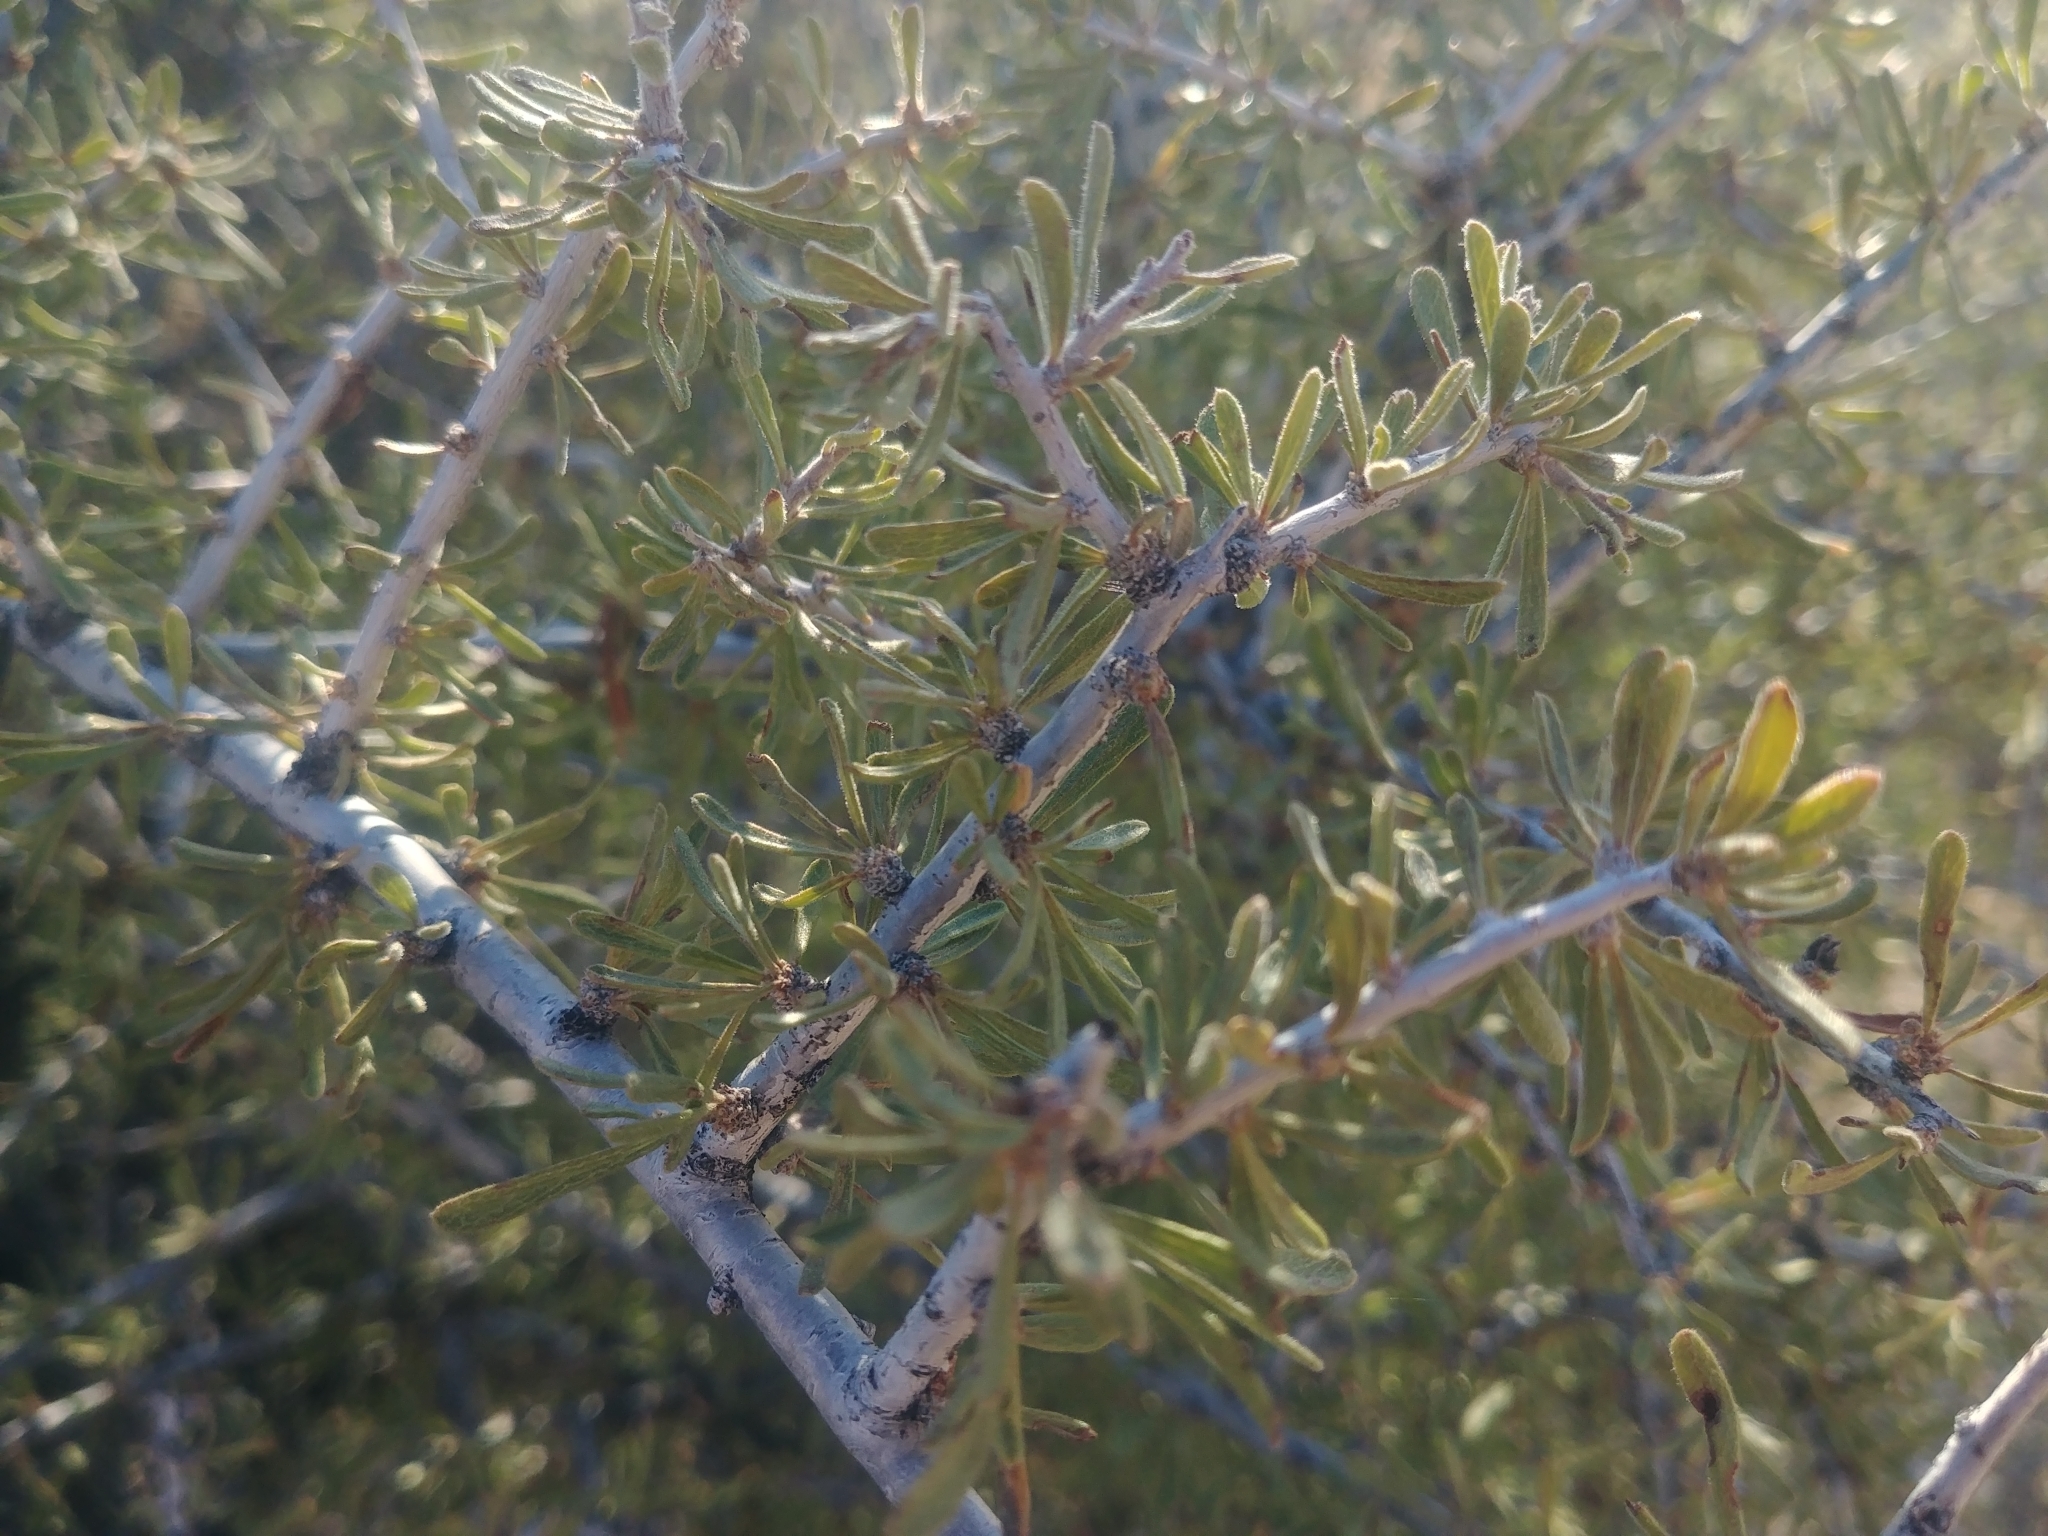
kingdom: Plantae
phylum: Tracheophyta
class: Magnoliopsida
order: Rosales
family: Rosaceae
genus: Prunus
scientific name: Prunus fasciculata
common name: Desert almond
